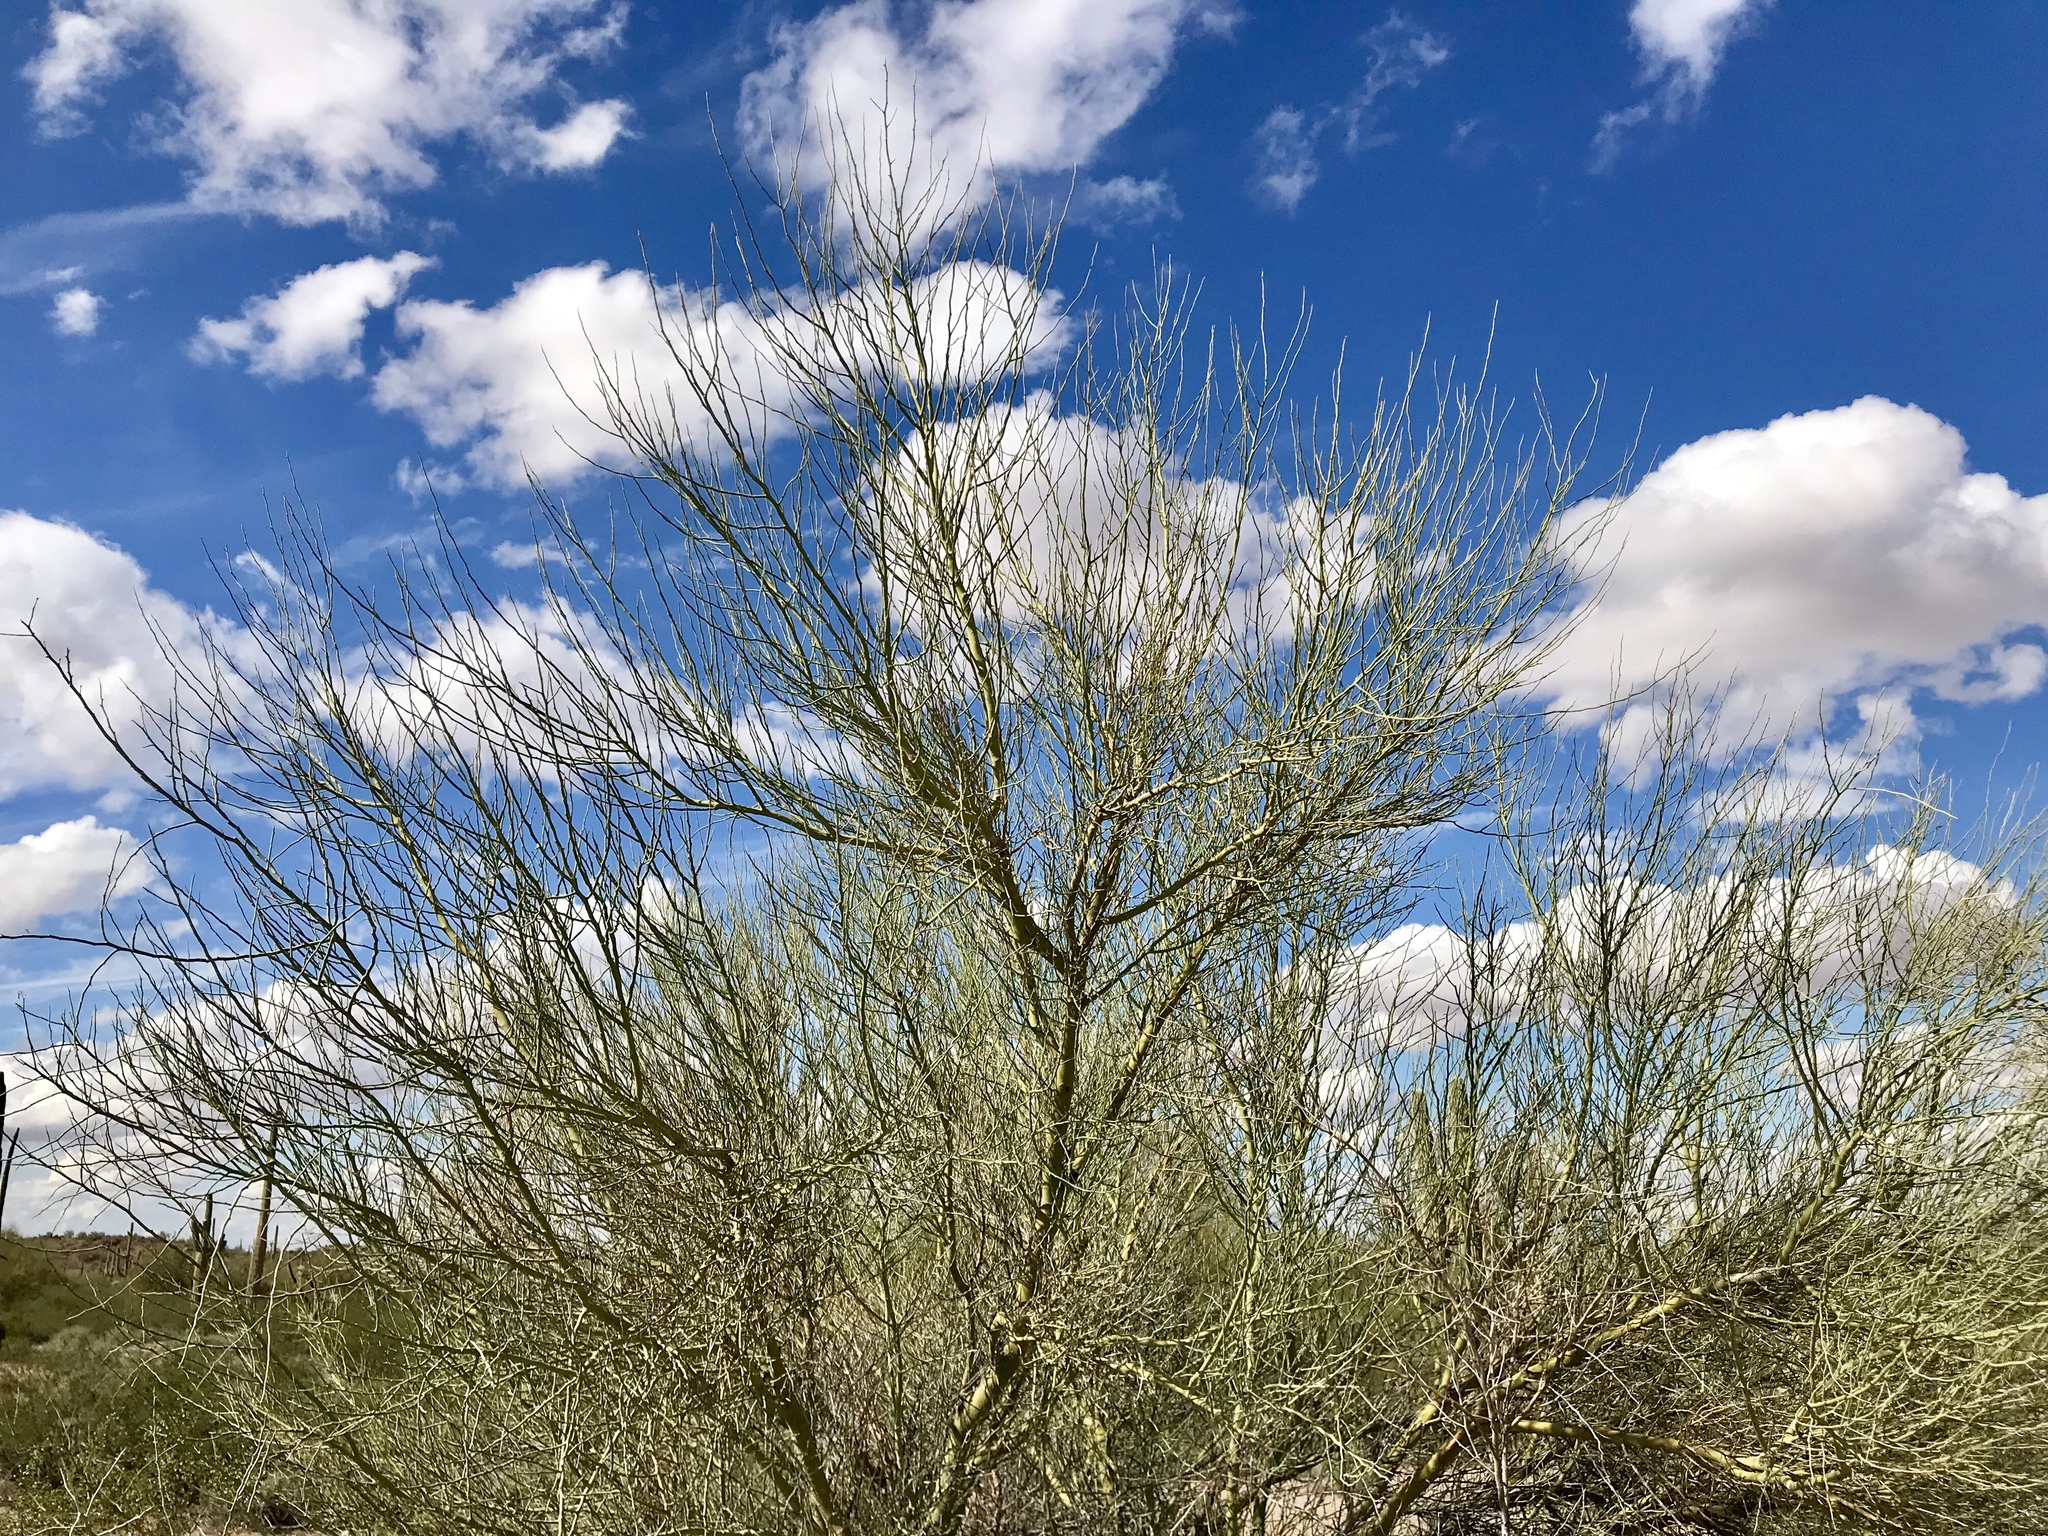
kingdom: Plantae
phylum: Tracheophyta
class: Magnoliopsida
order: Fabales
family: Fabaceae
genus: Parkinsonia
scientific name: Parkinsonia florida
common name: Blue paloverde
